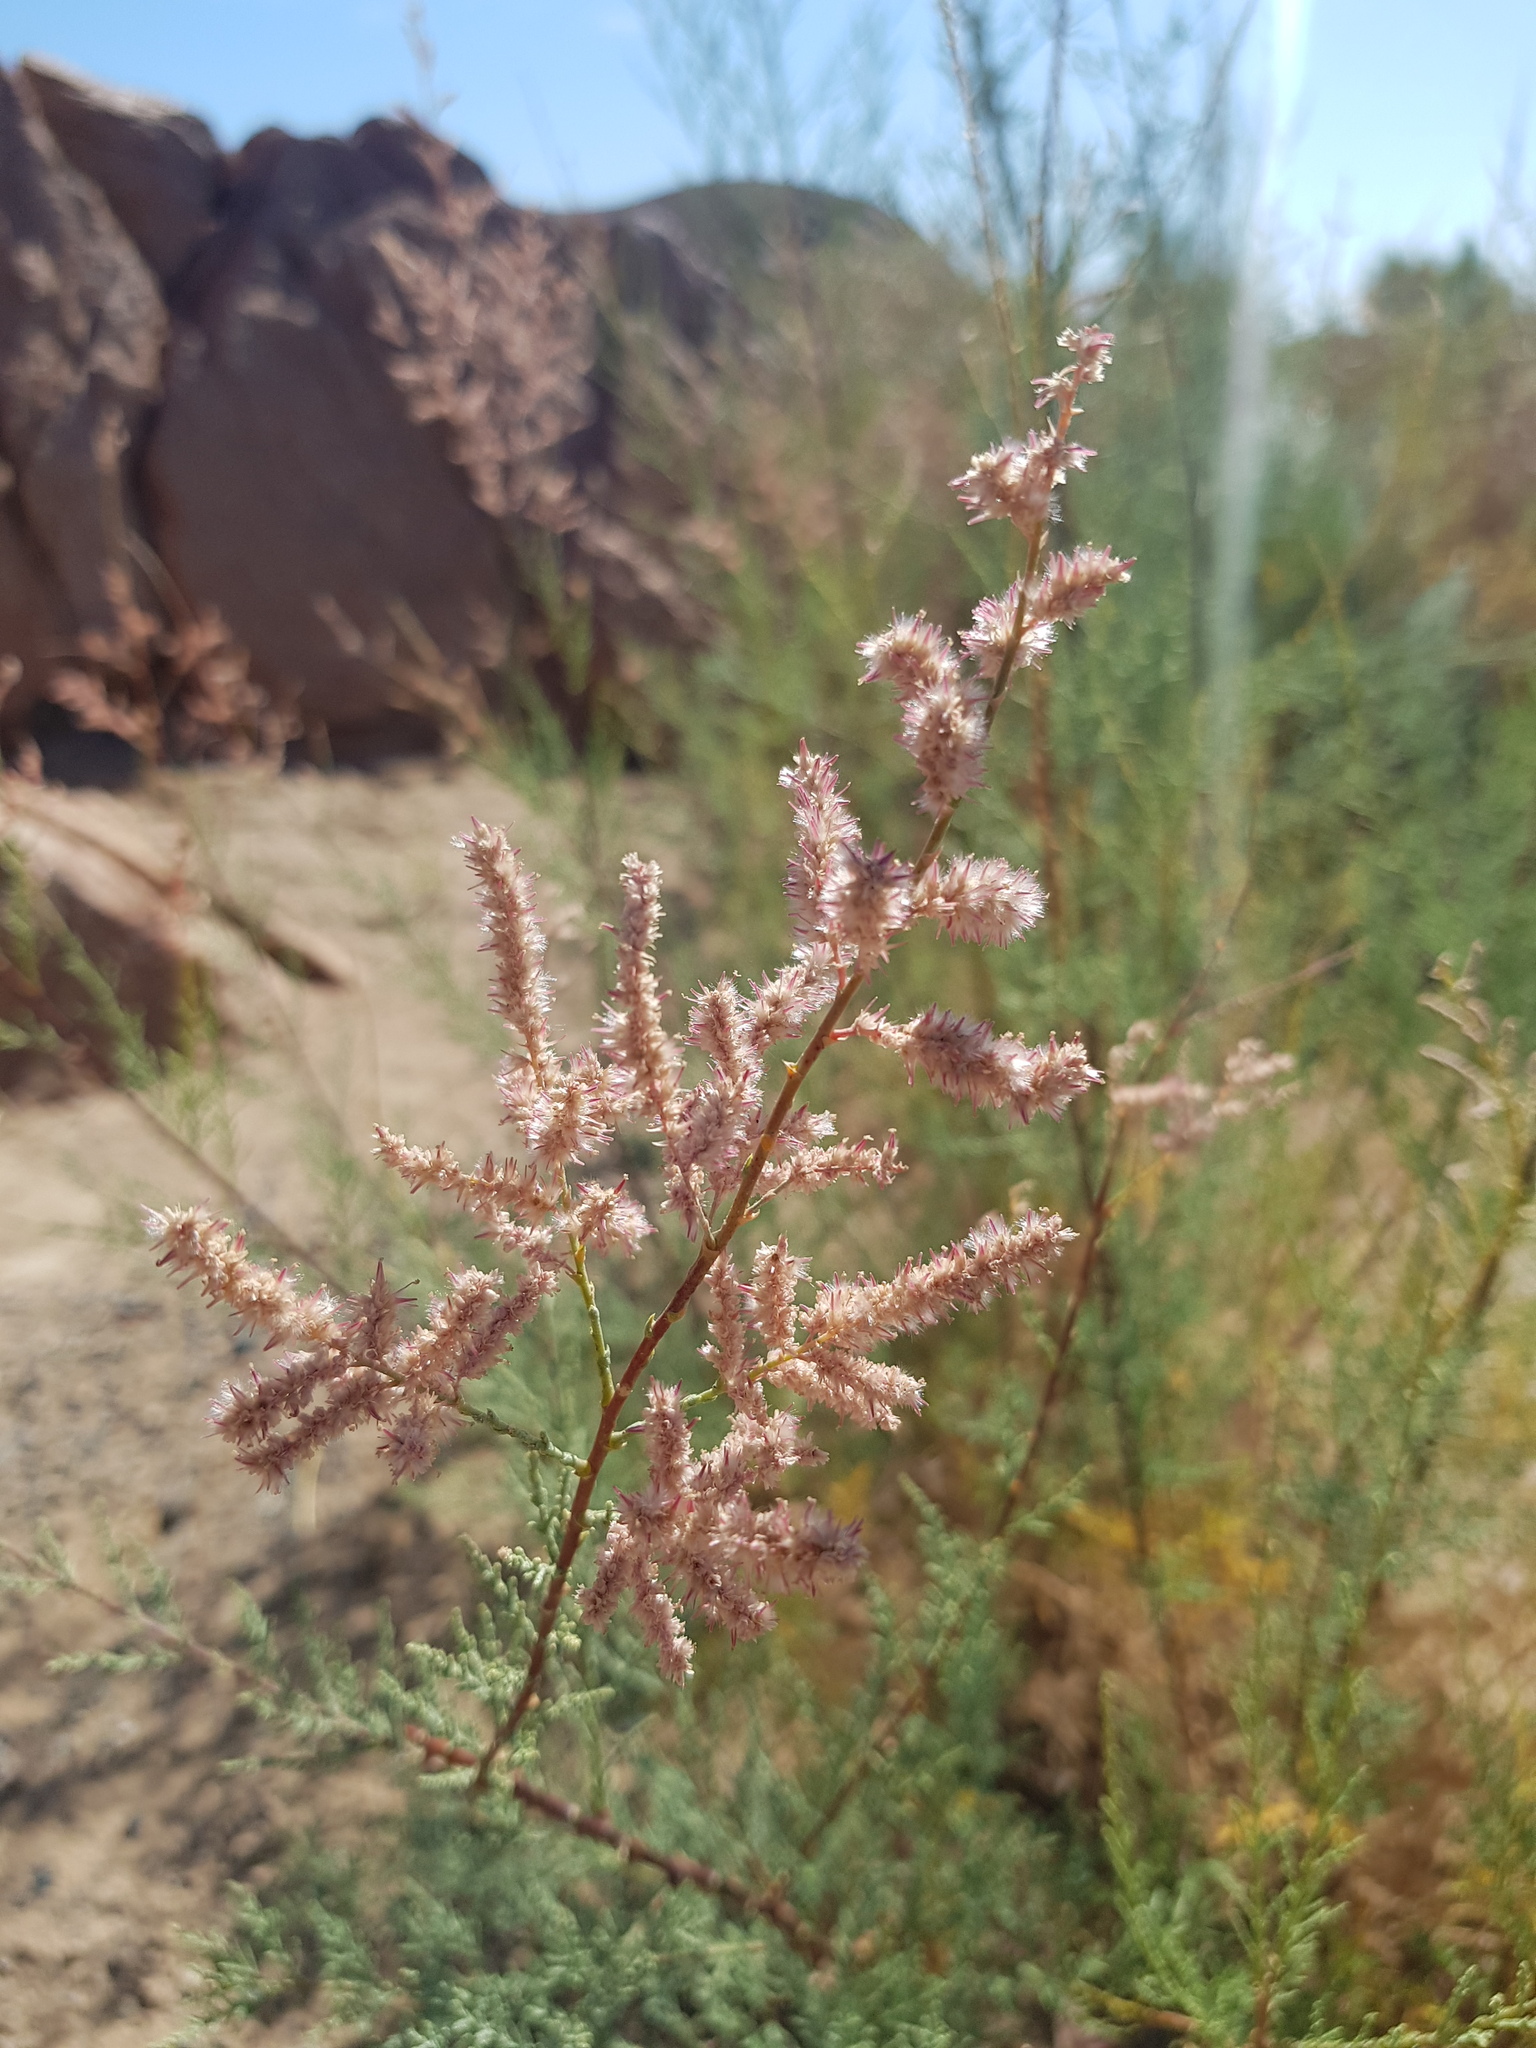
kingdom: Plantae
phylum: Tracheophyta
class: Magnoliopsida
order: Caryophyllales
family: Tamaricaceae
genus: Tamarix
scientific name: Tamarix karelinii
